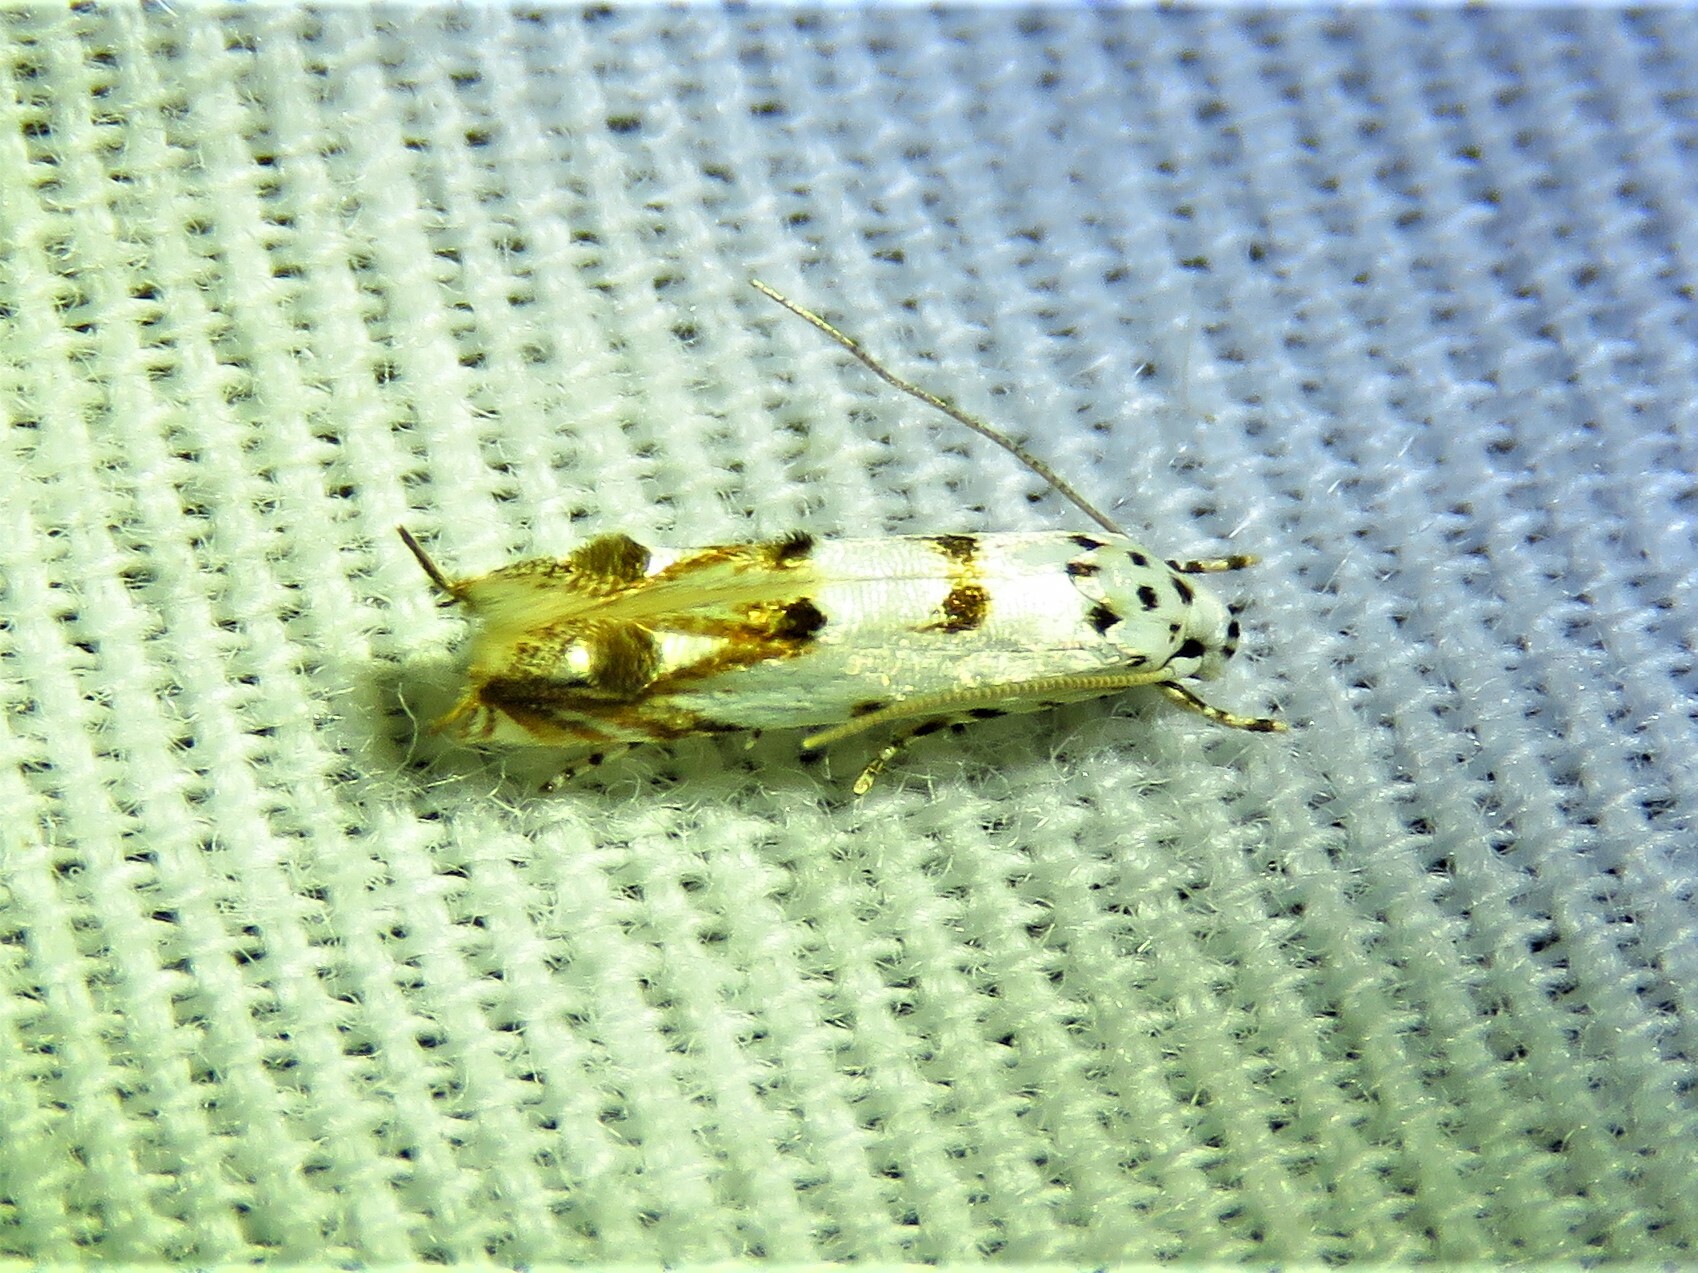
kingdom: Animalia
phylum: Arthropoda
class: Insecta
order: Lepidoptera
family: Momphidae
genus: Mompha
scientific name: Mompha eloisella
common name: Red-streaked mompha moth
